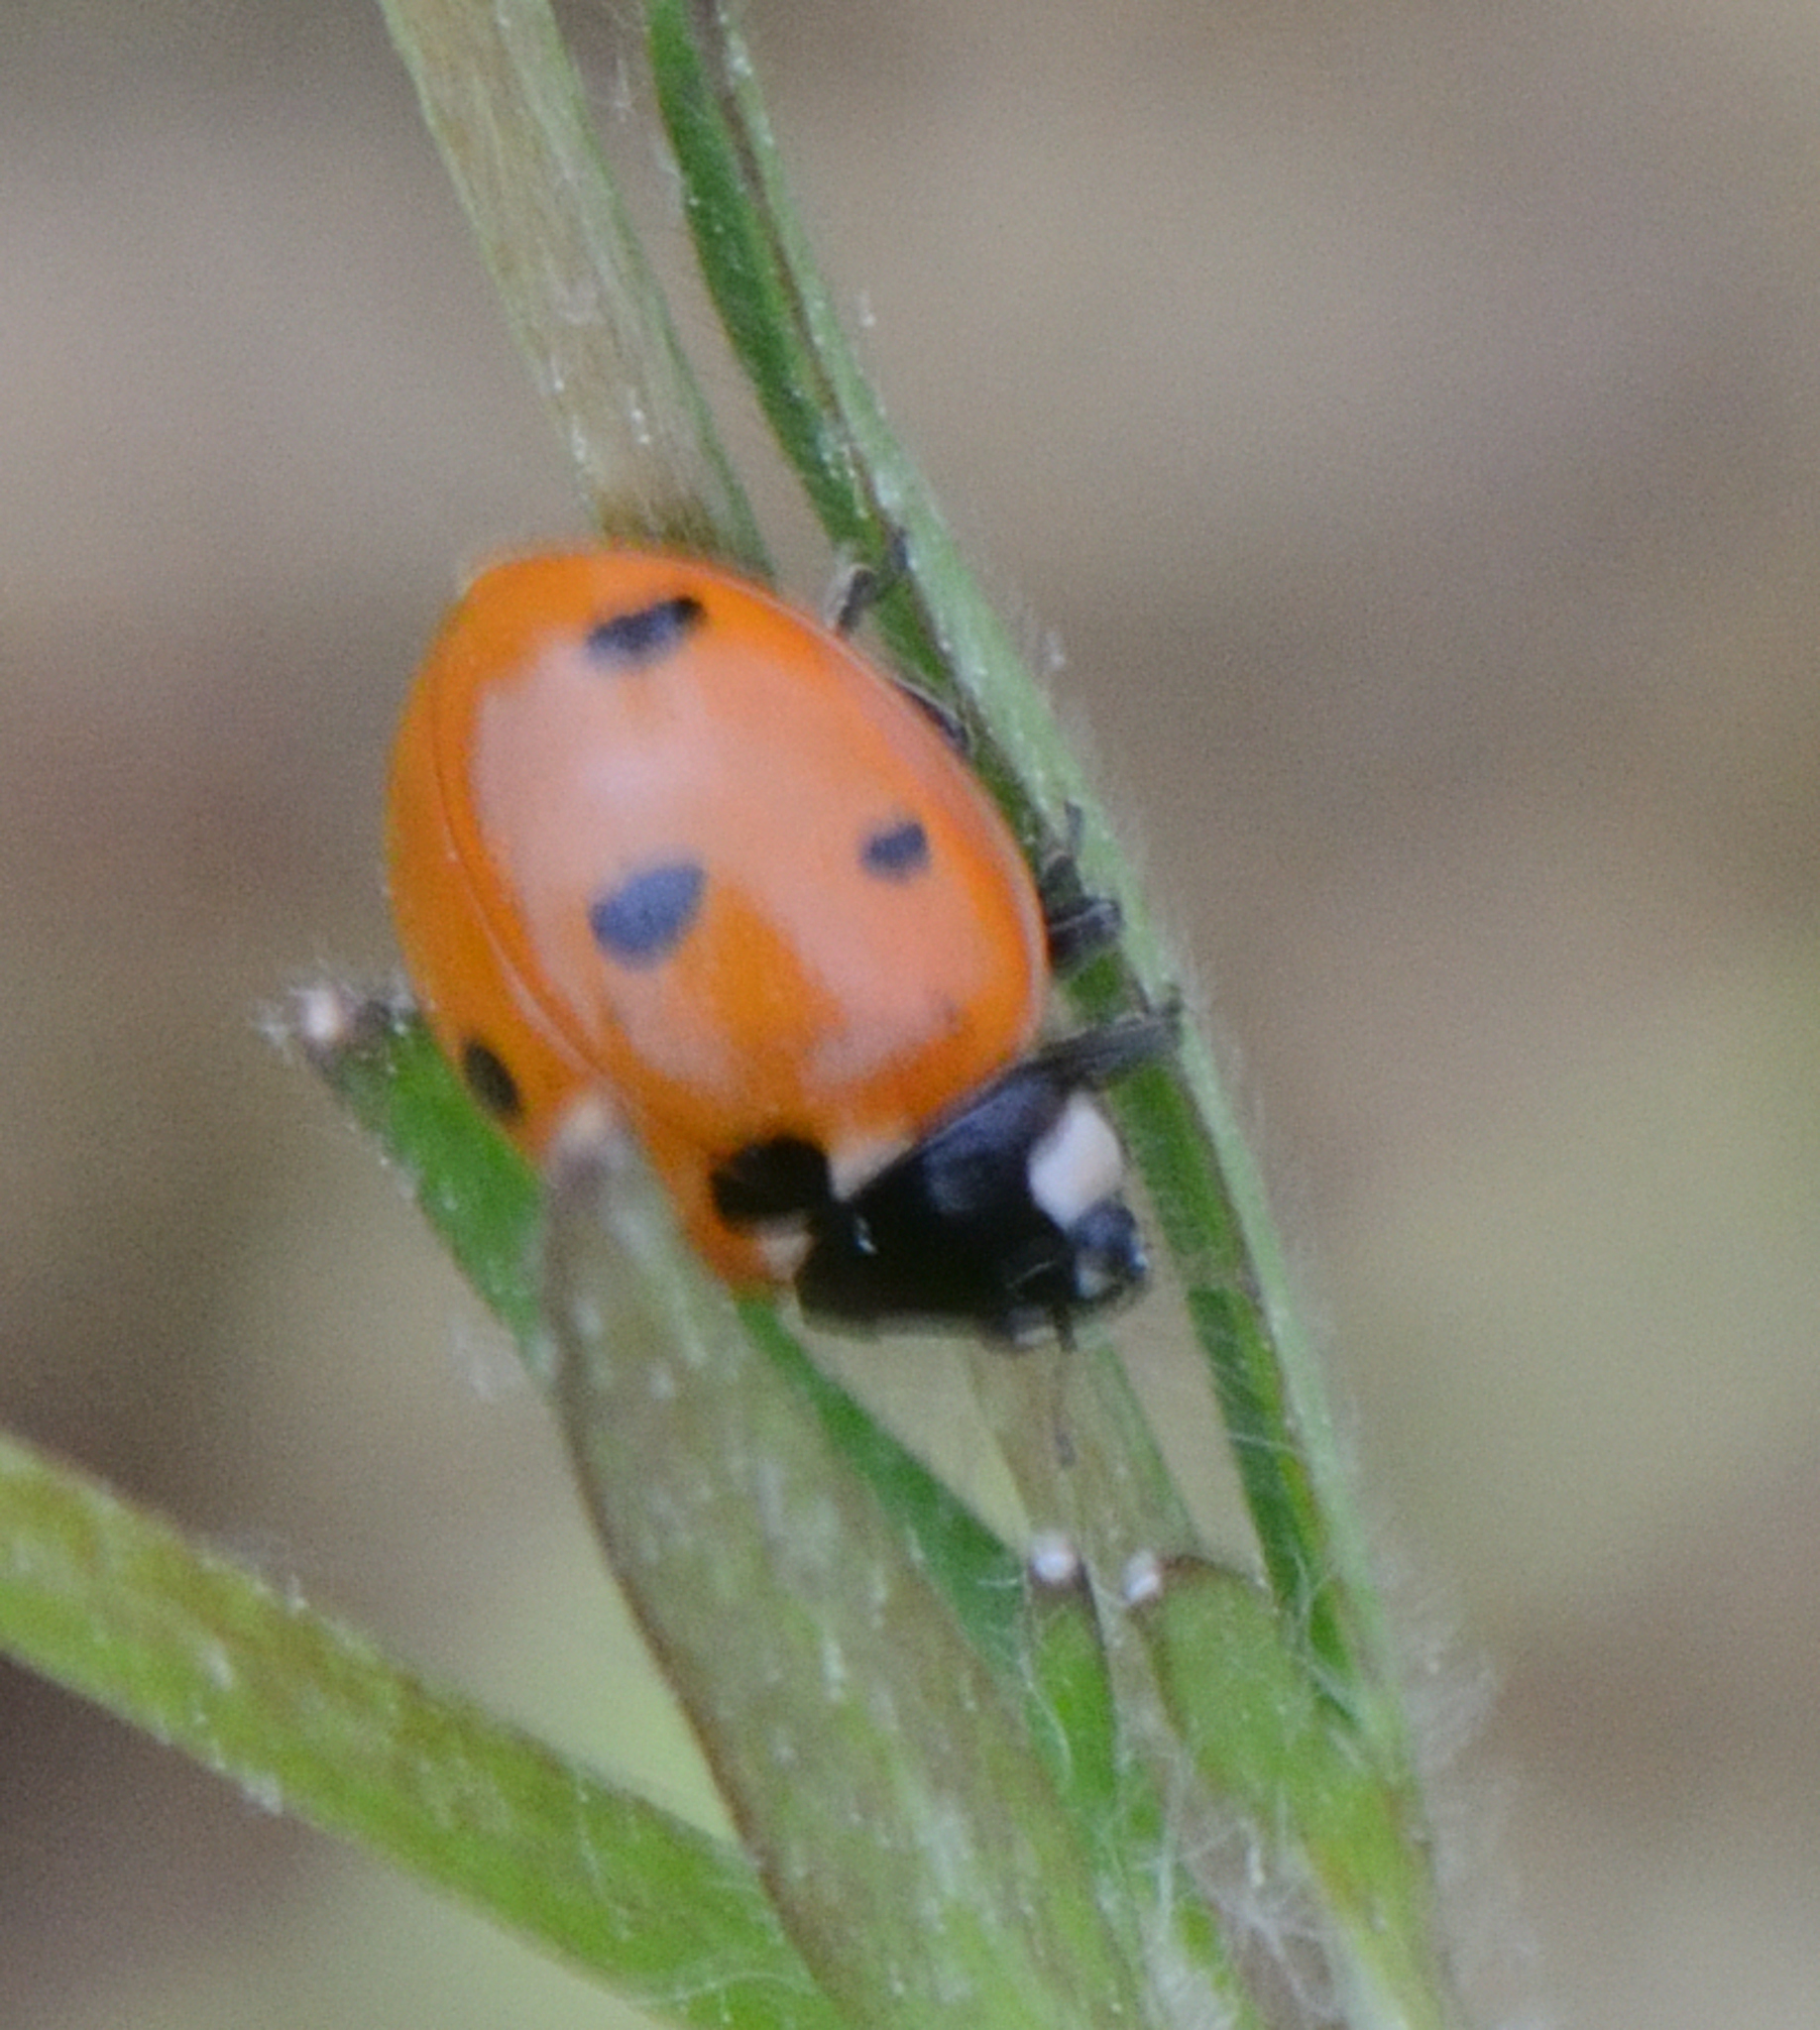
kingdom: Animalia
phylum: Arthropoda
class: Insecta
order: Coleoptera
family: Coccinellidae
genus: Coccinella
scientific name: Coccinella septempunctata
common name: Sevenspotted lady beetle
